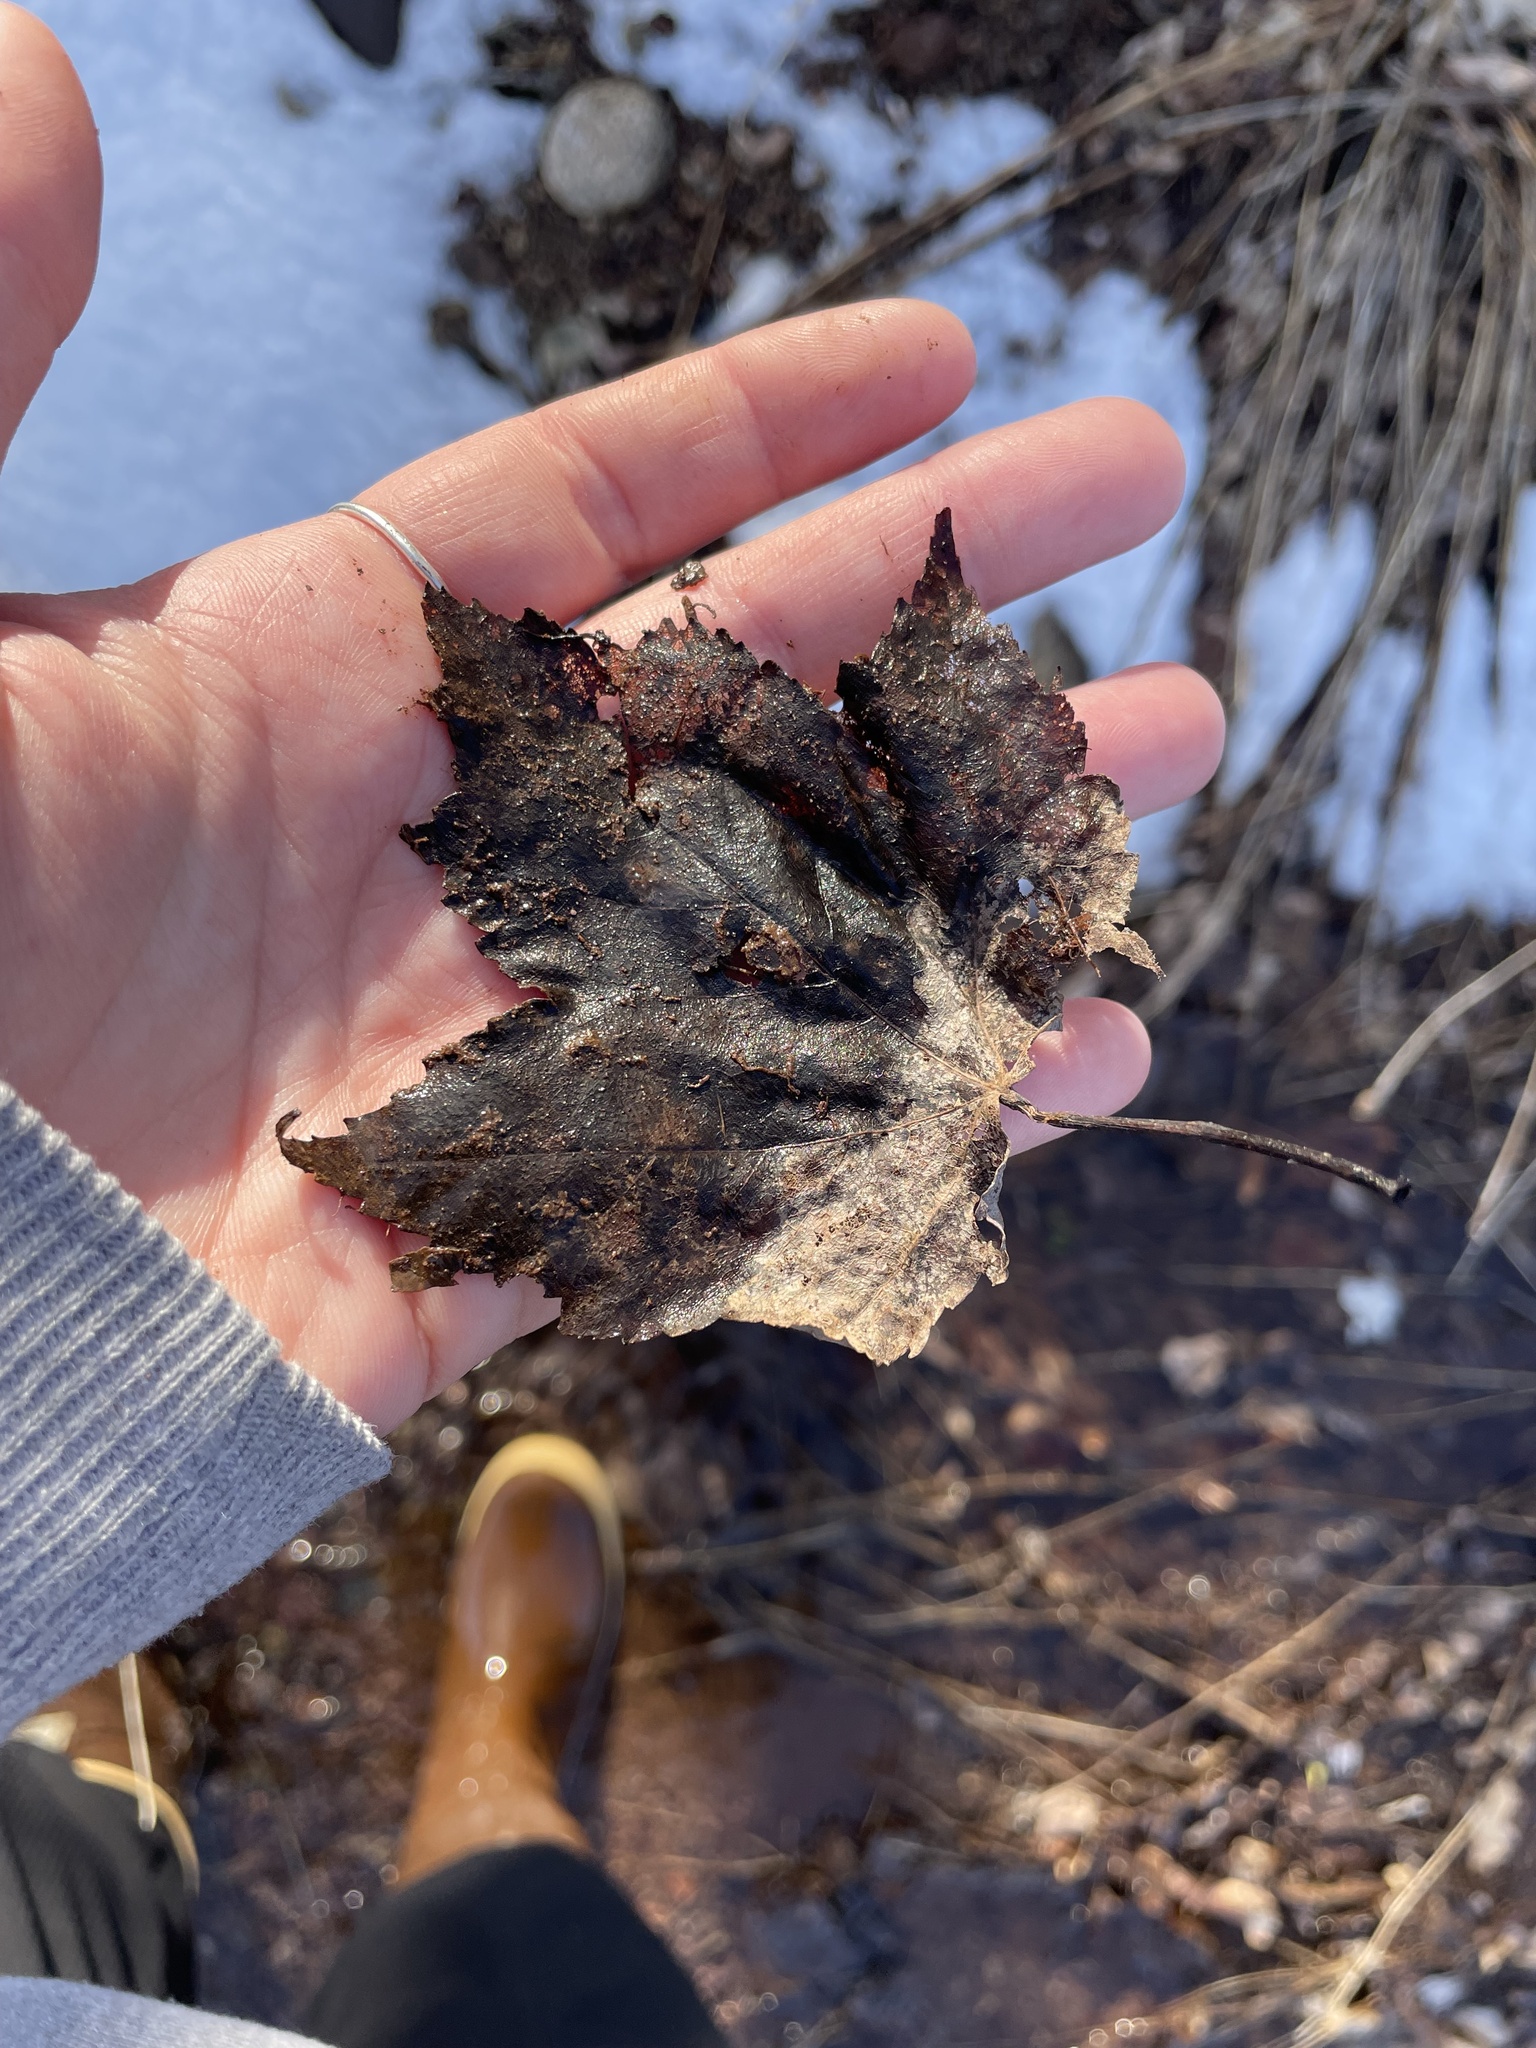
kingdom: Plantae
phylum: Tracheophyta
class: Magnoliopsida
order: Sapindales
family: Sapindaceae
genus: Acer
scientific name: Acer rubrum
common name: Red maple
